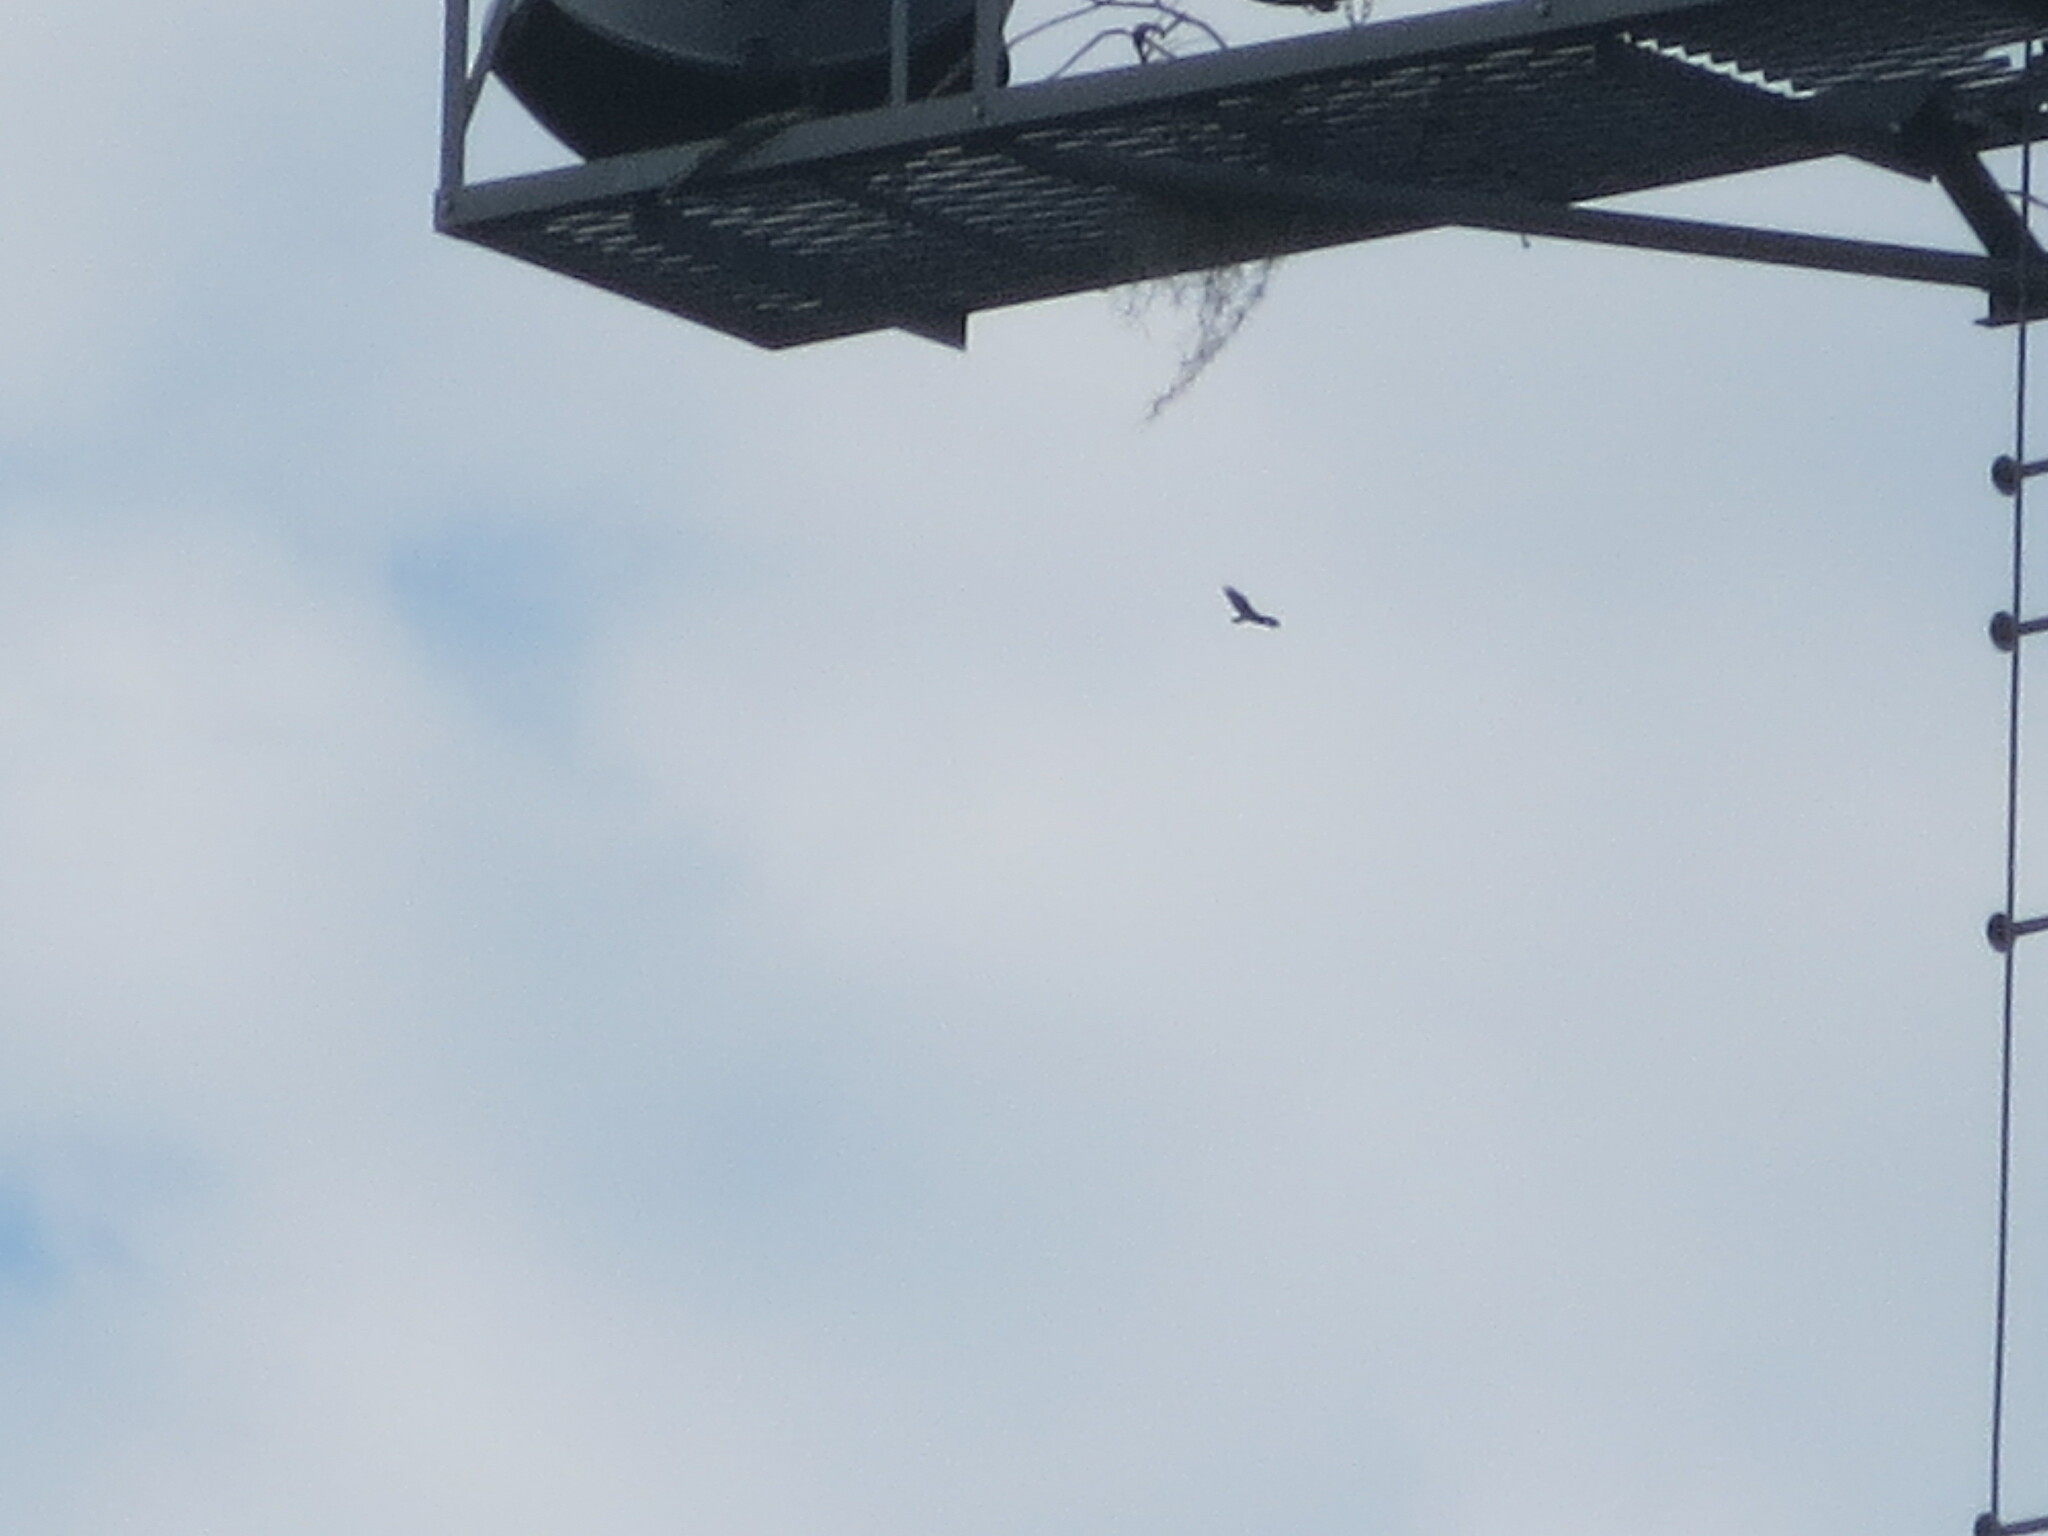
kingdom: Animalia
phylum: Chordata
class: Aves
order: Accipitriformes
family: Cathartidae
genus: Cathartes
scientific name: Cathartes aura
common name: Turkey vulture
